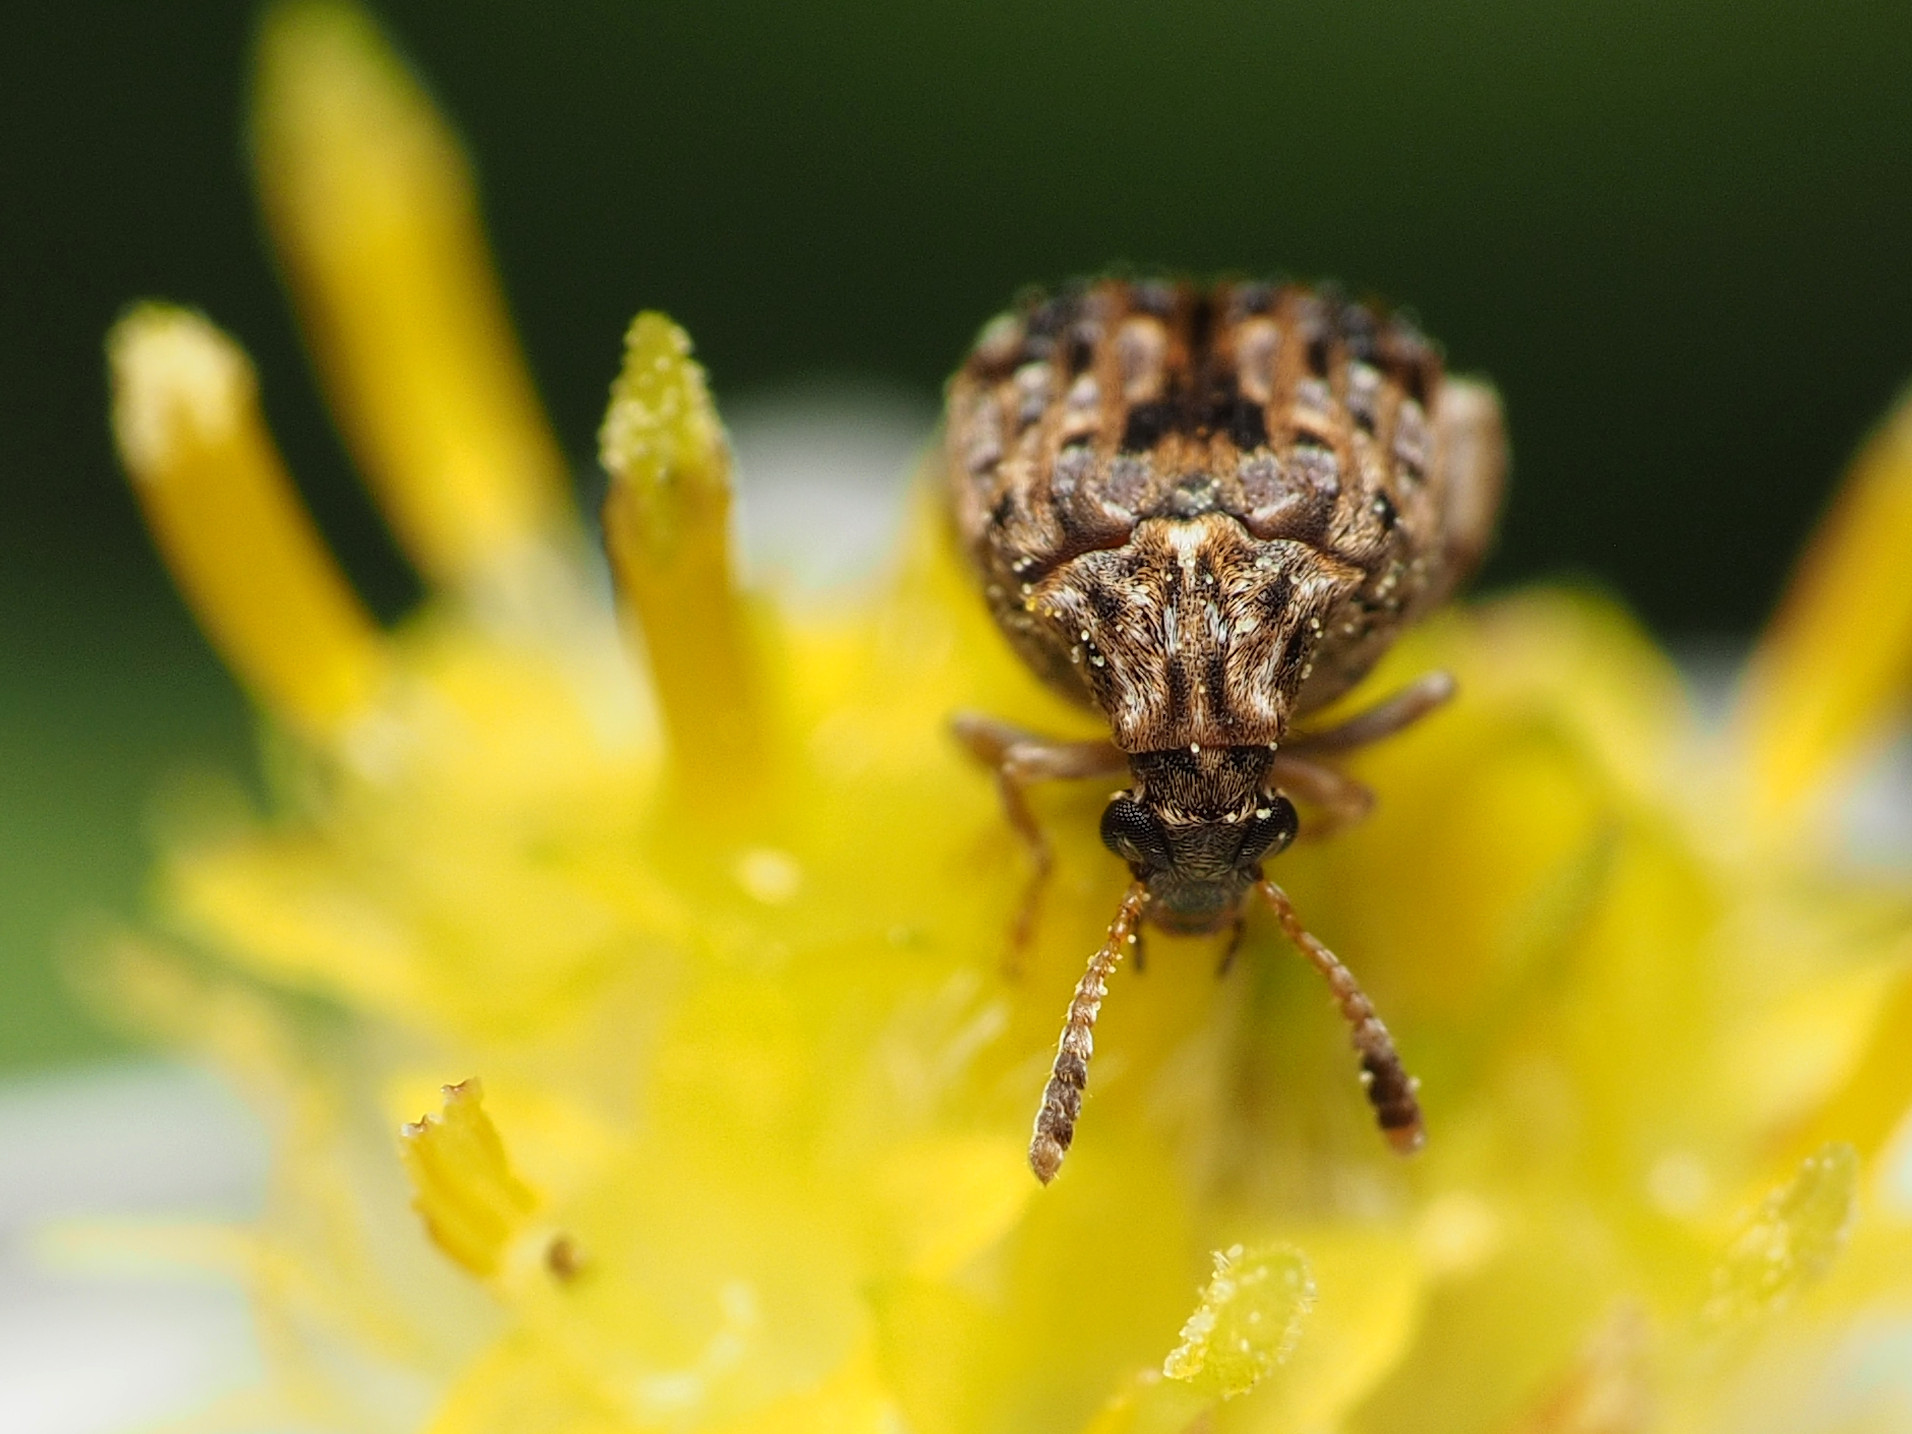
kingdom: Animalia
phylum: Arthropoda
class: Insecta
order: Coleoptera
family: Chrysomelidae
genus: Gibbobruchus
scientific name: Gibbobruchus mimus
